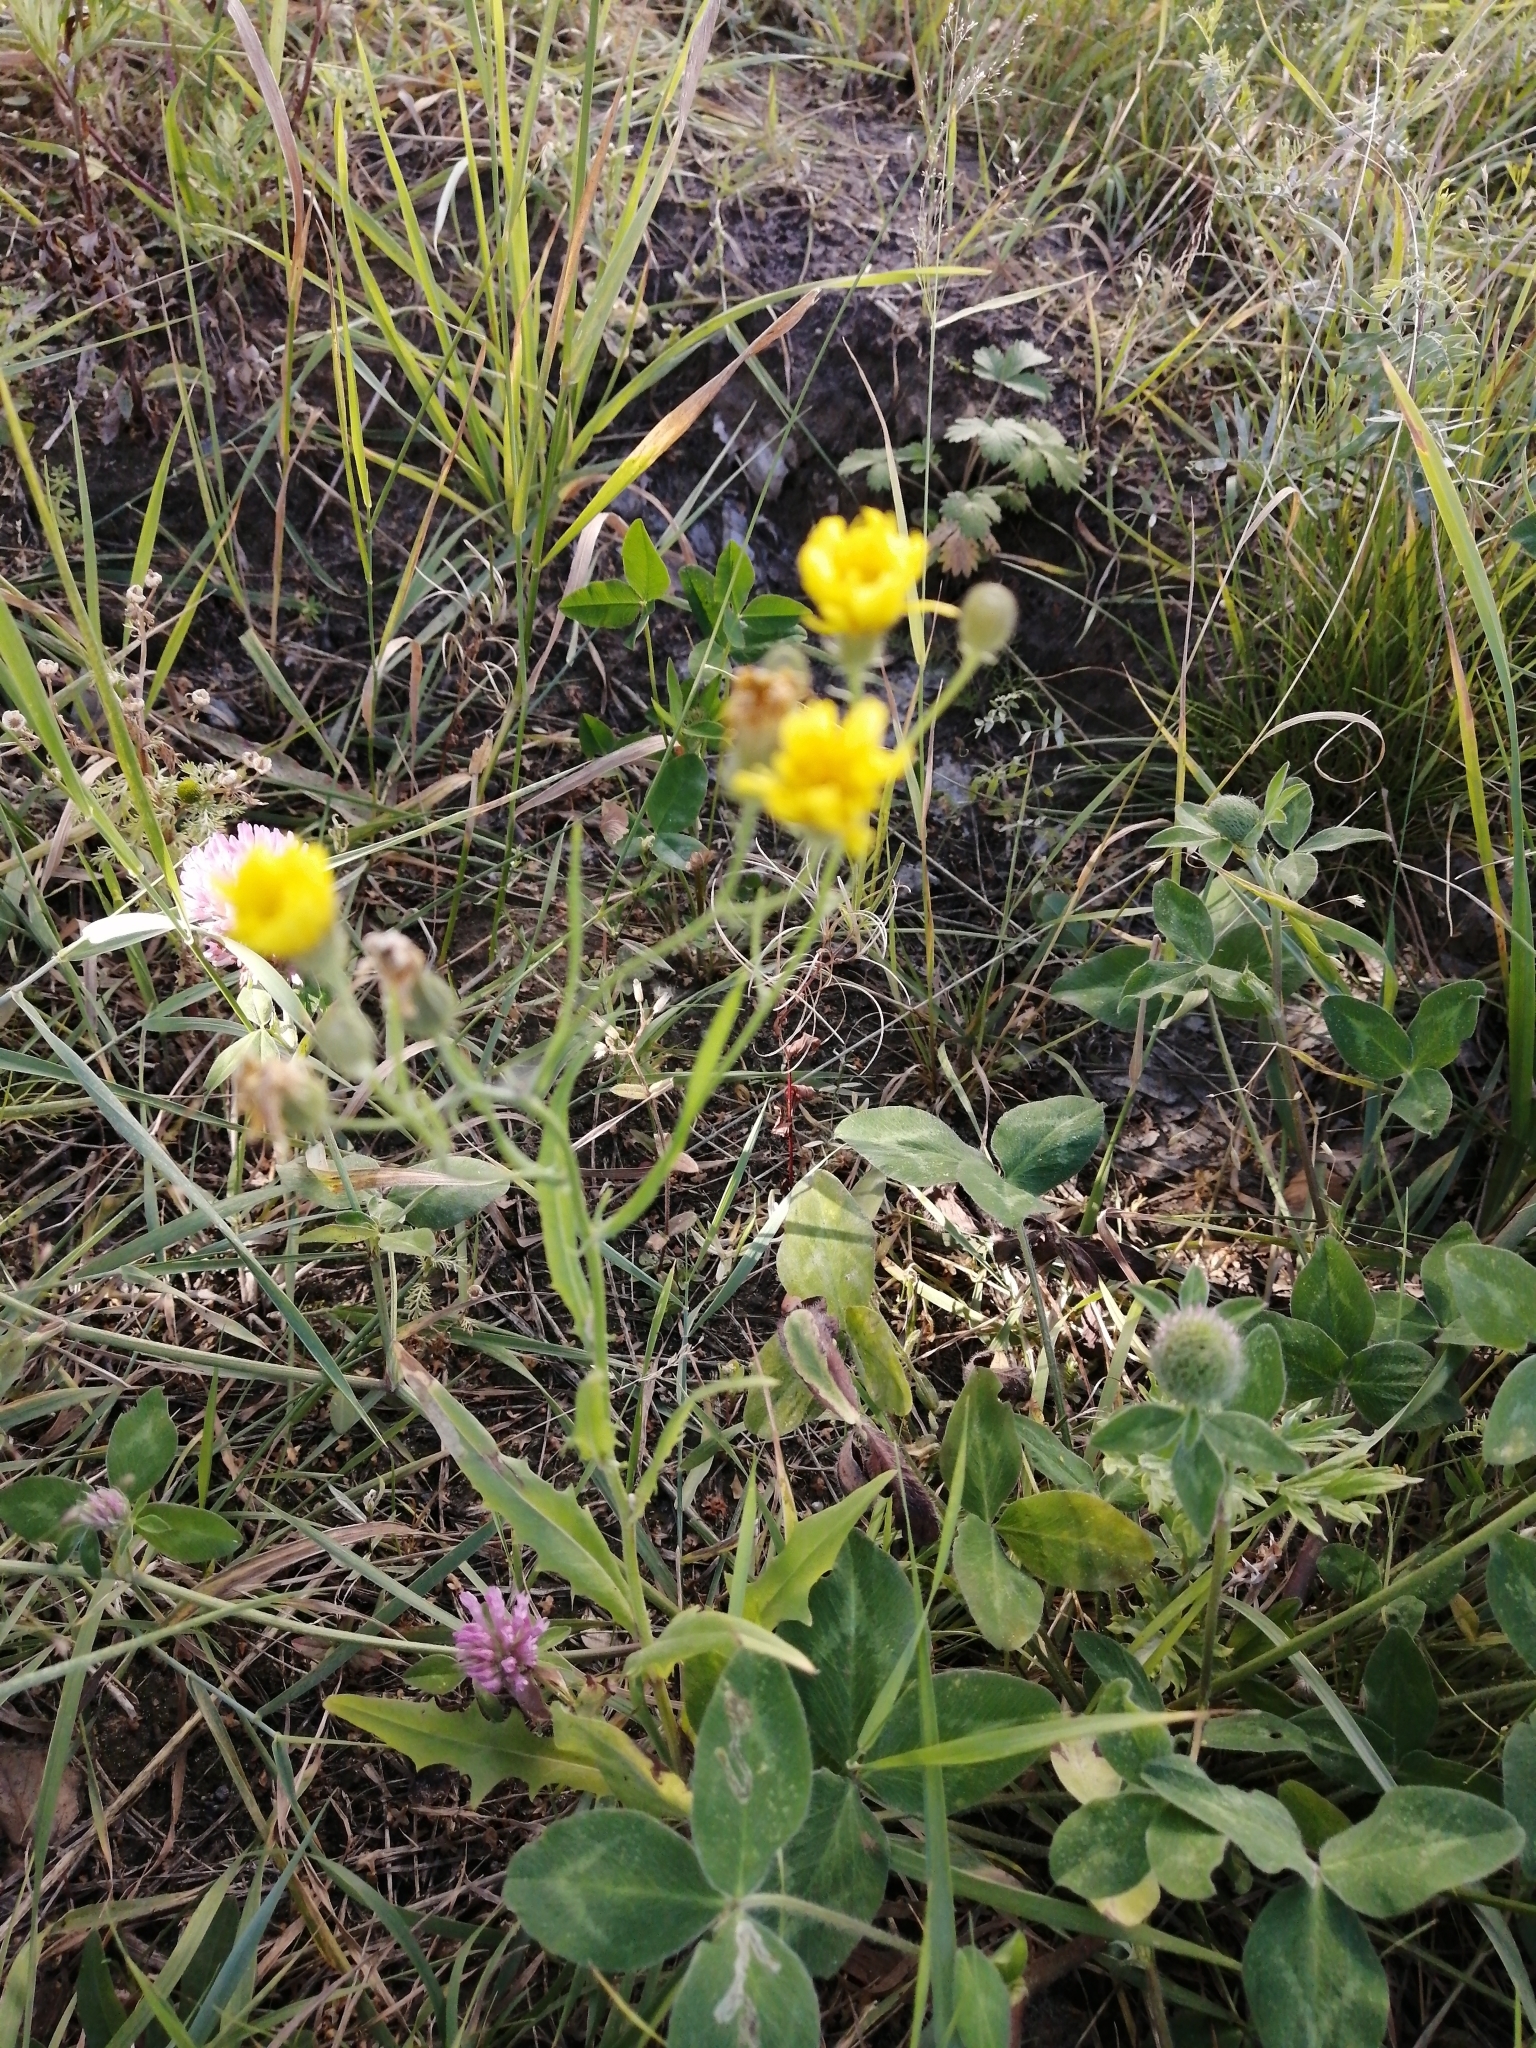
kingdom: Plantae
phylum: Tracheophyta
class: Magnoliopsida
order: Asterales
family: Asteraceae
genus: Crepis
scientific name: Crepis tectorum
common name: Narrow-leaved hawk's-beard
